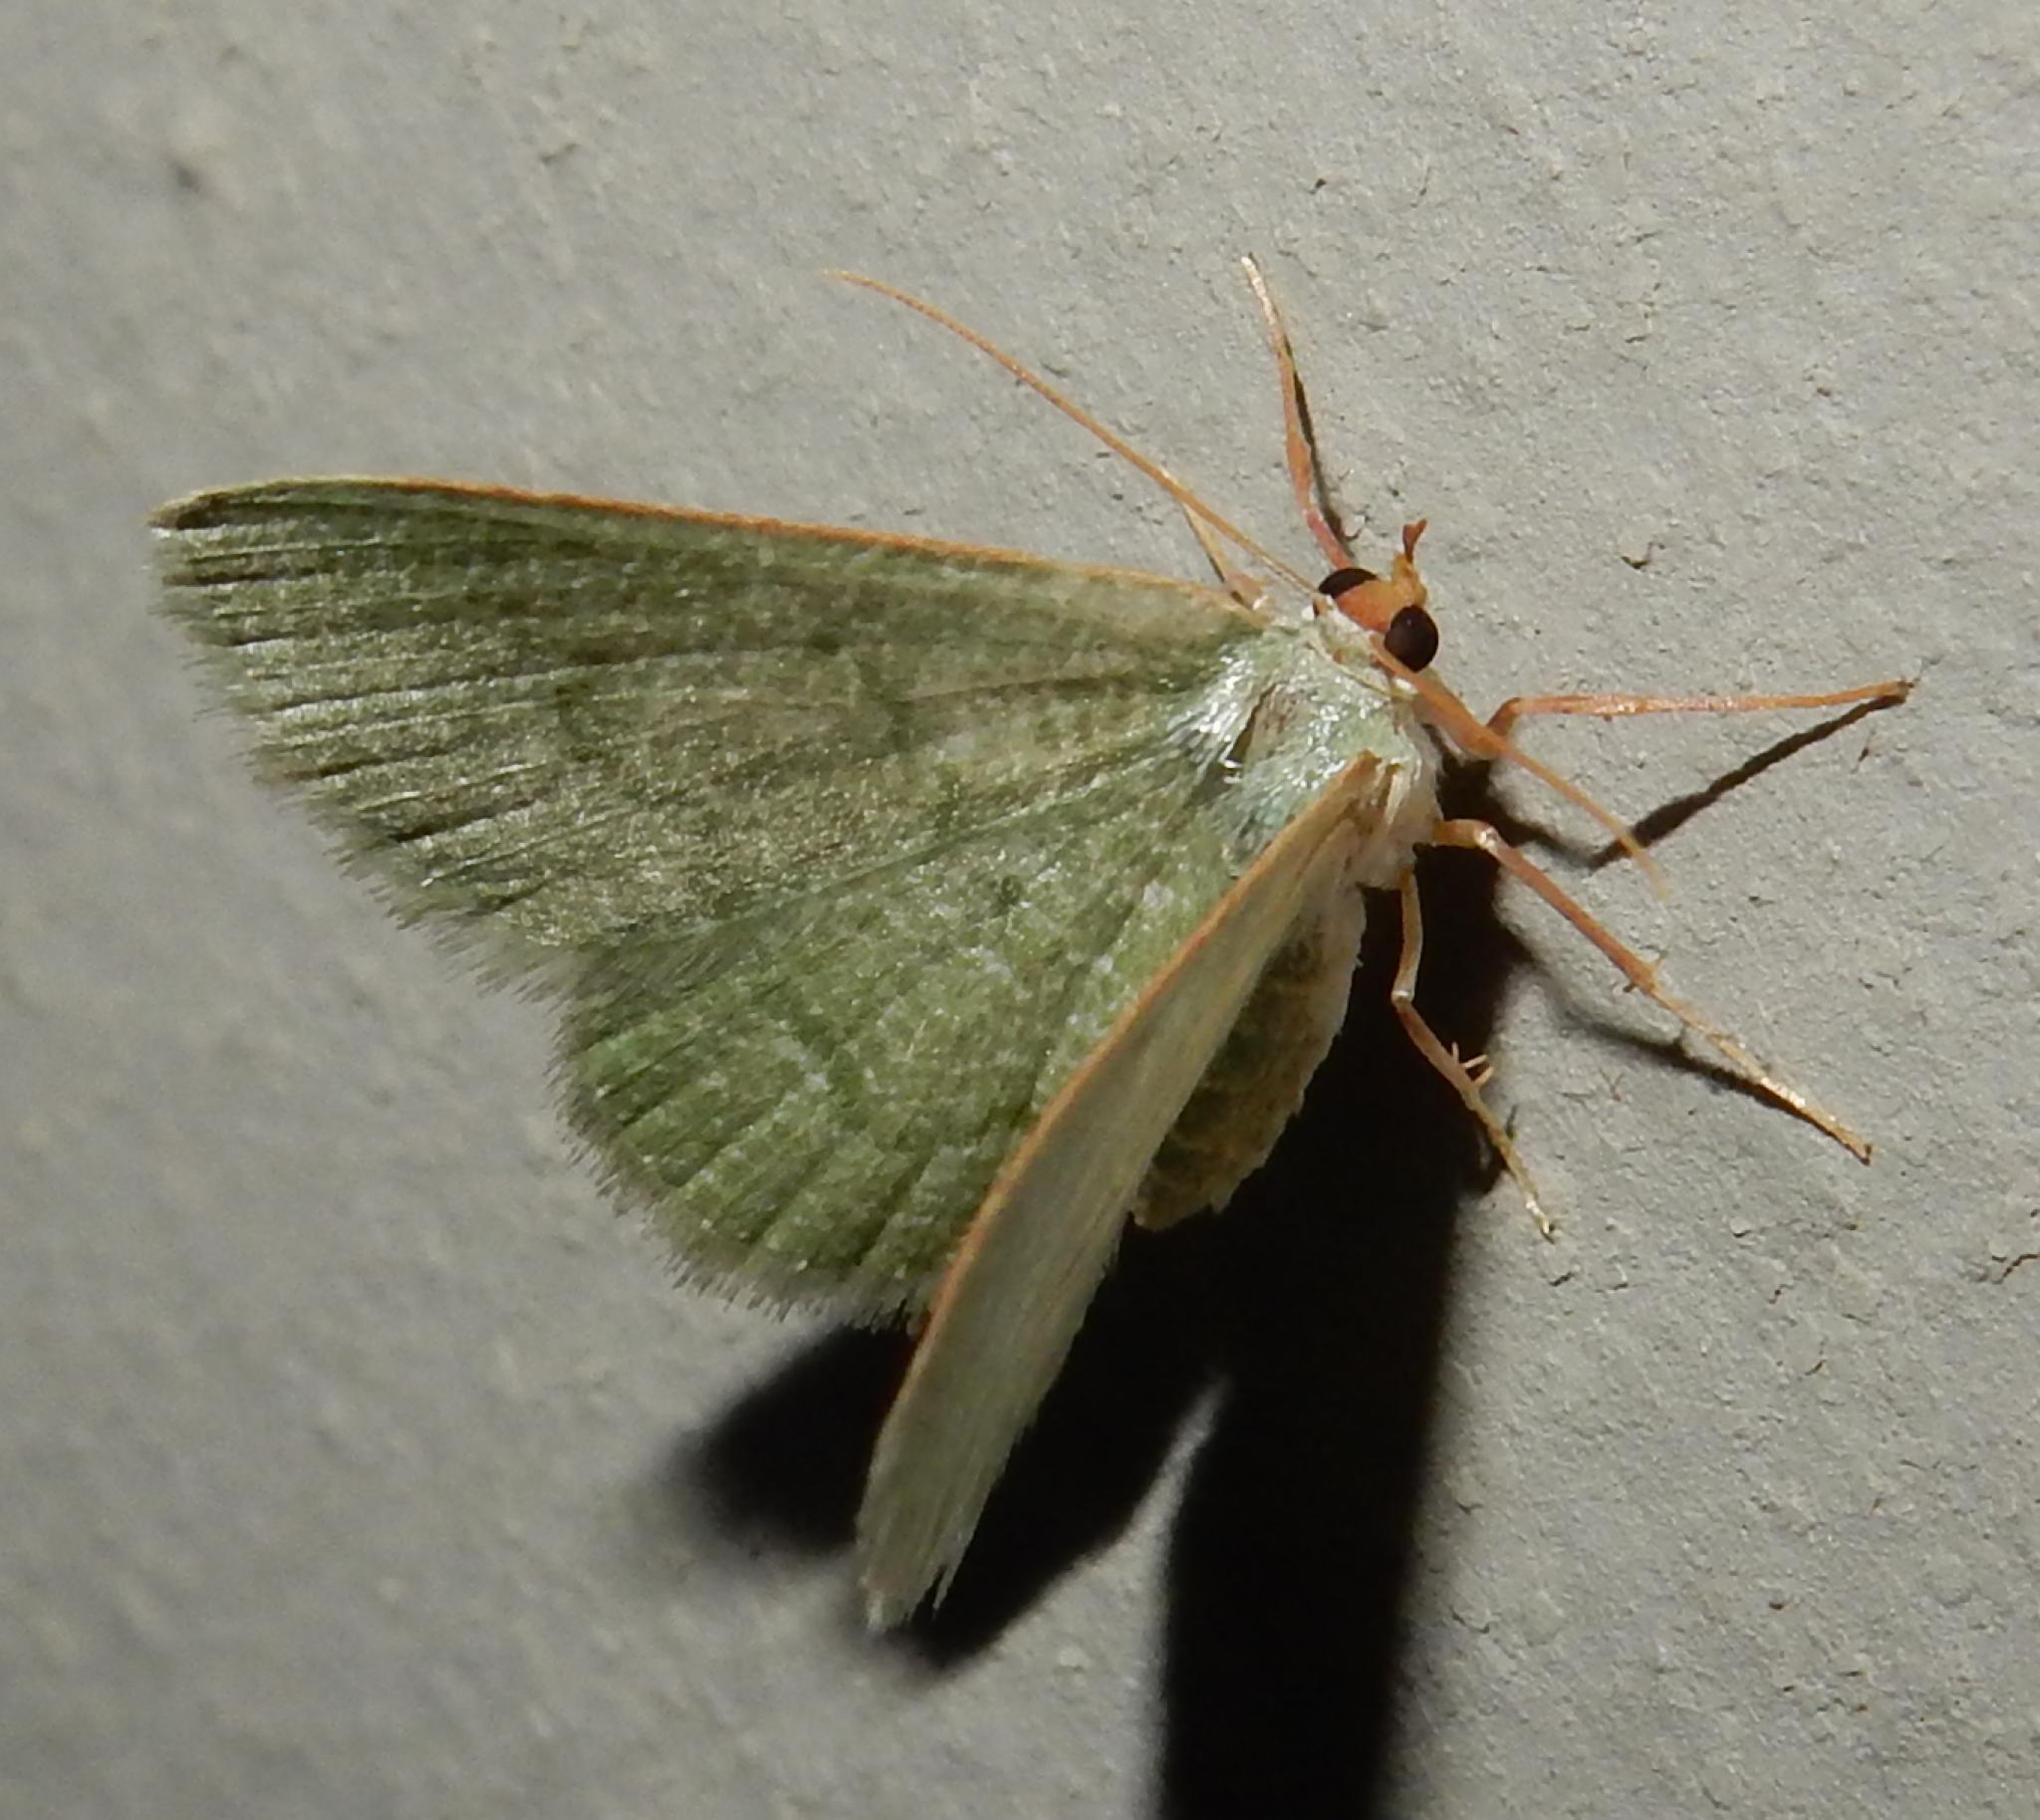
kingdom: Animalia
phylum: Arthropoda
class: Insecta
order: Lepidoptera
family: Geometridae
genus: Chlorissa
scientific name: Chlorissa albistrigulata
